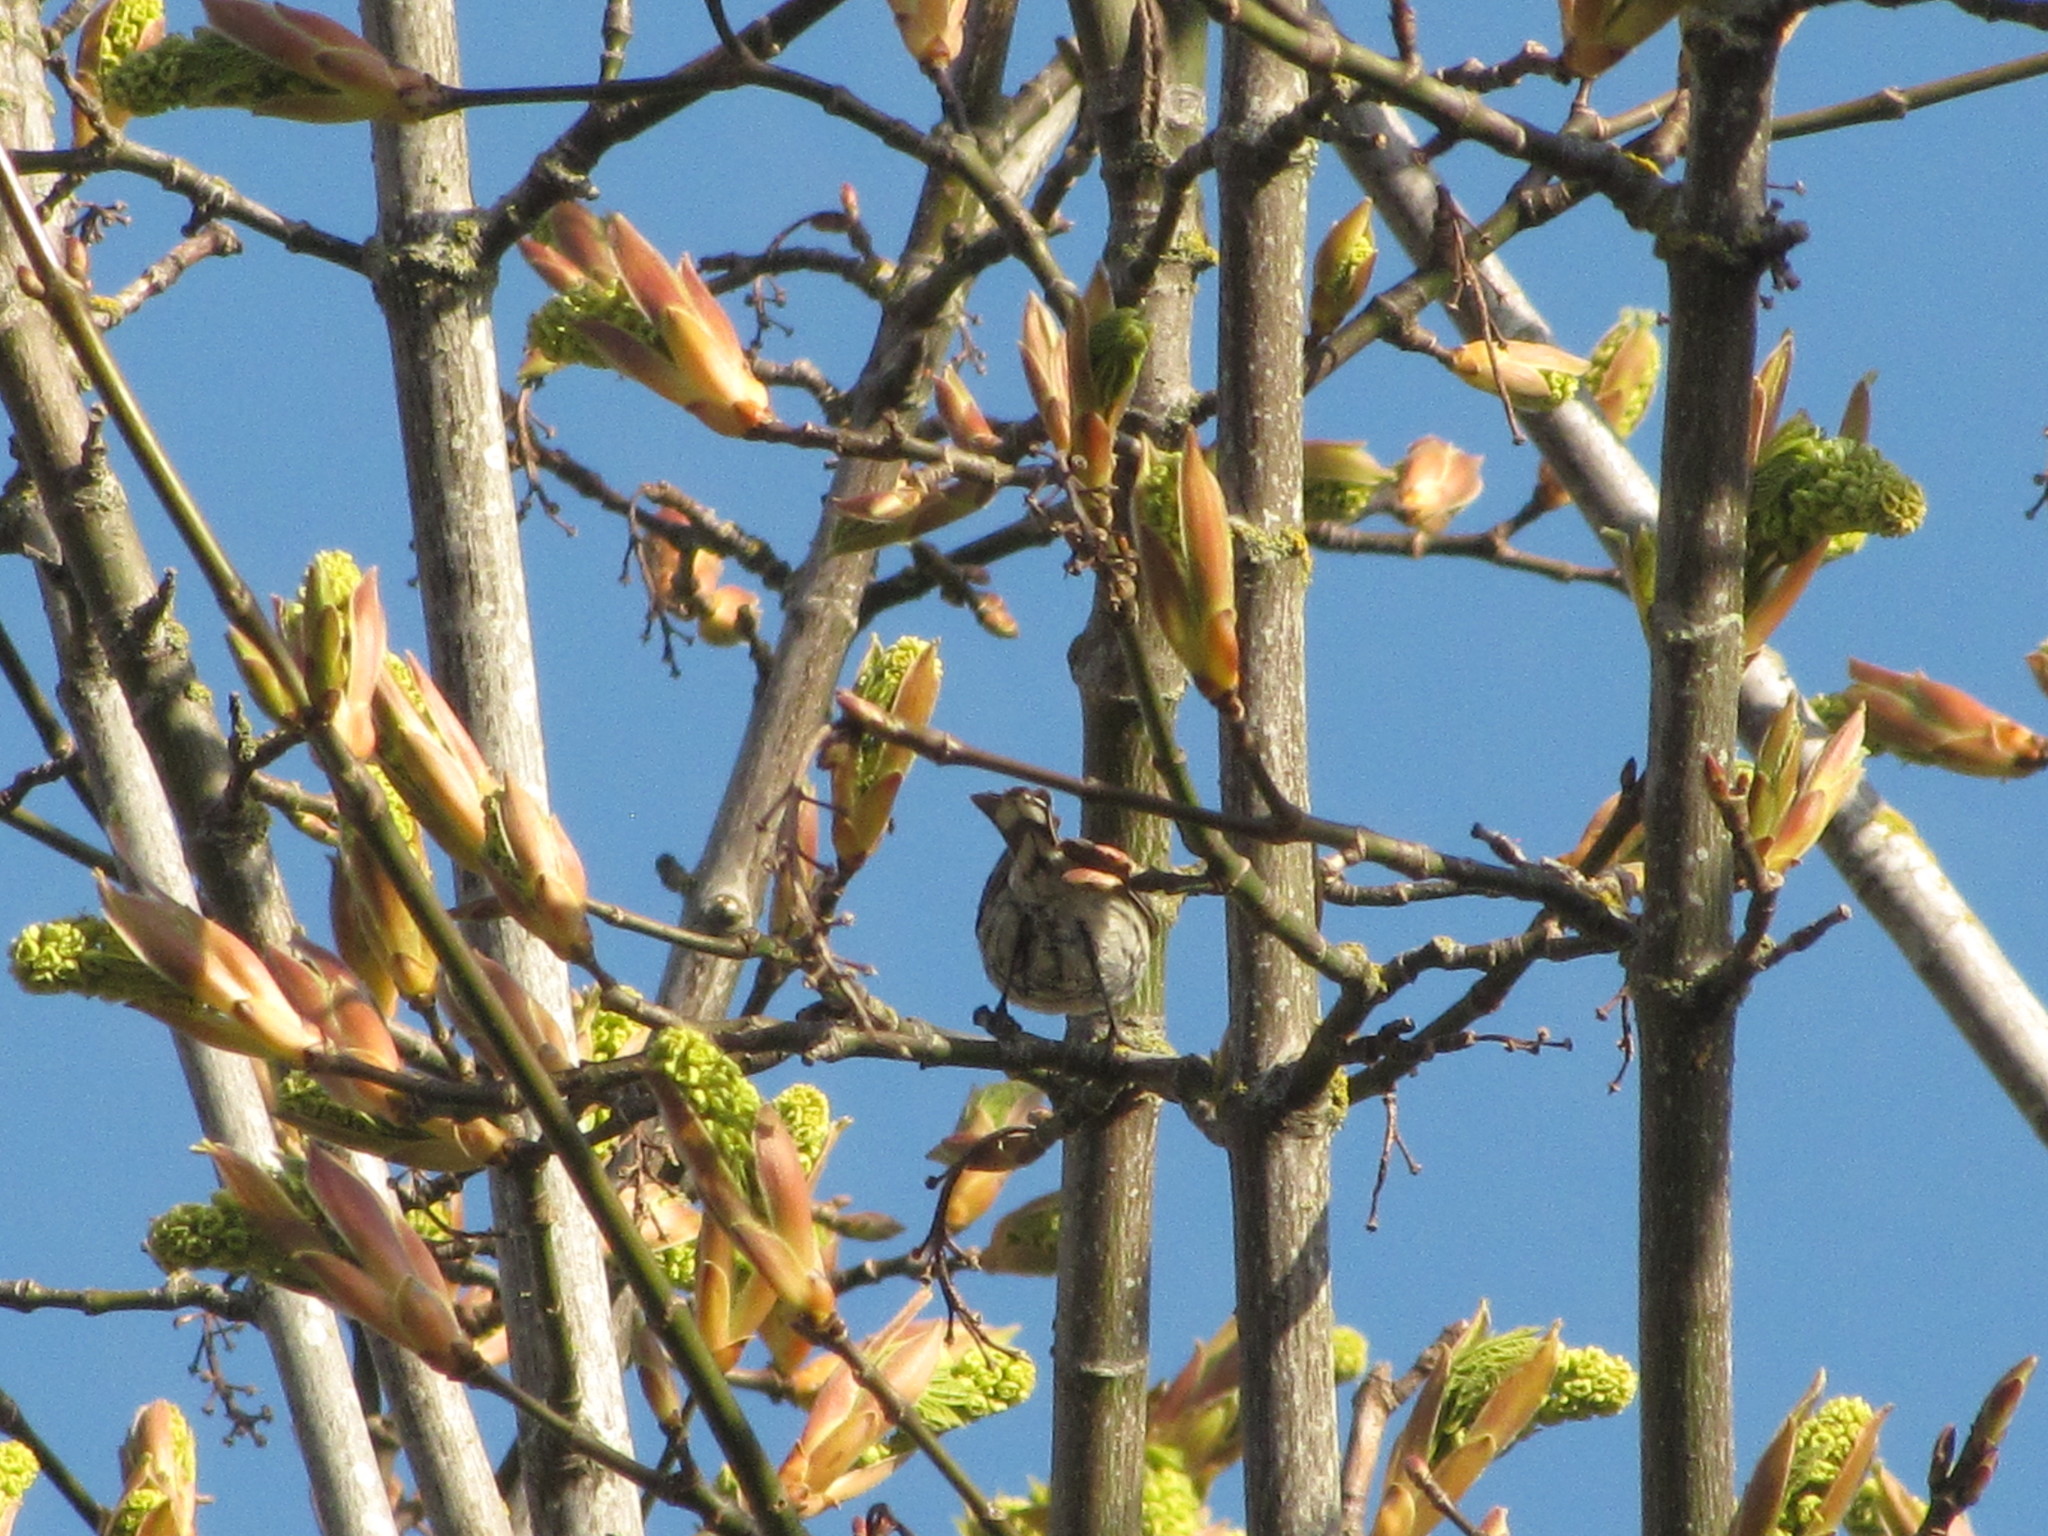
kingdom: Animalia
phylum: Chordata
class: Aves
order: Passeriformes
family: Parulidae
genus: Setophaga
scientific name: Setophaga coronata
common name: Myrtle warbler
